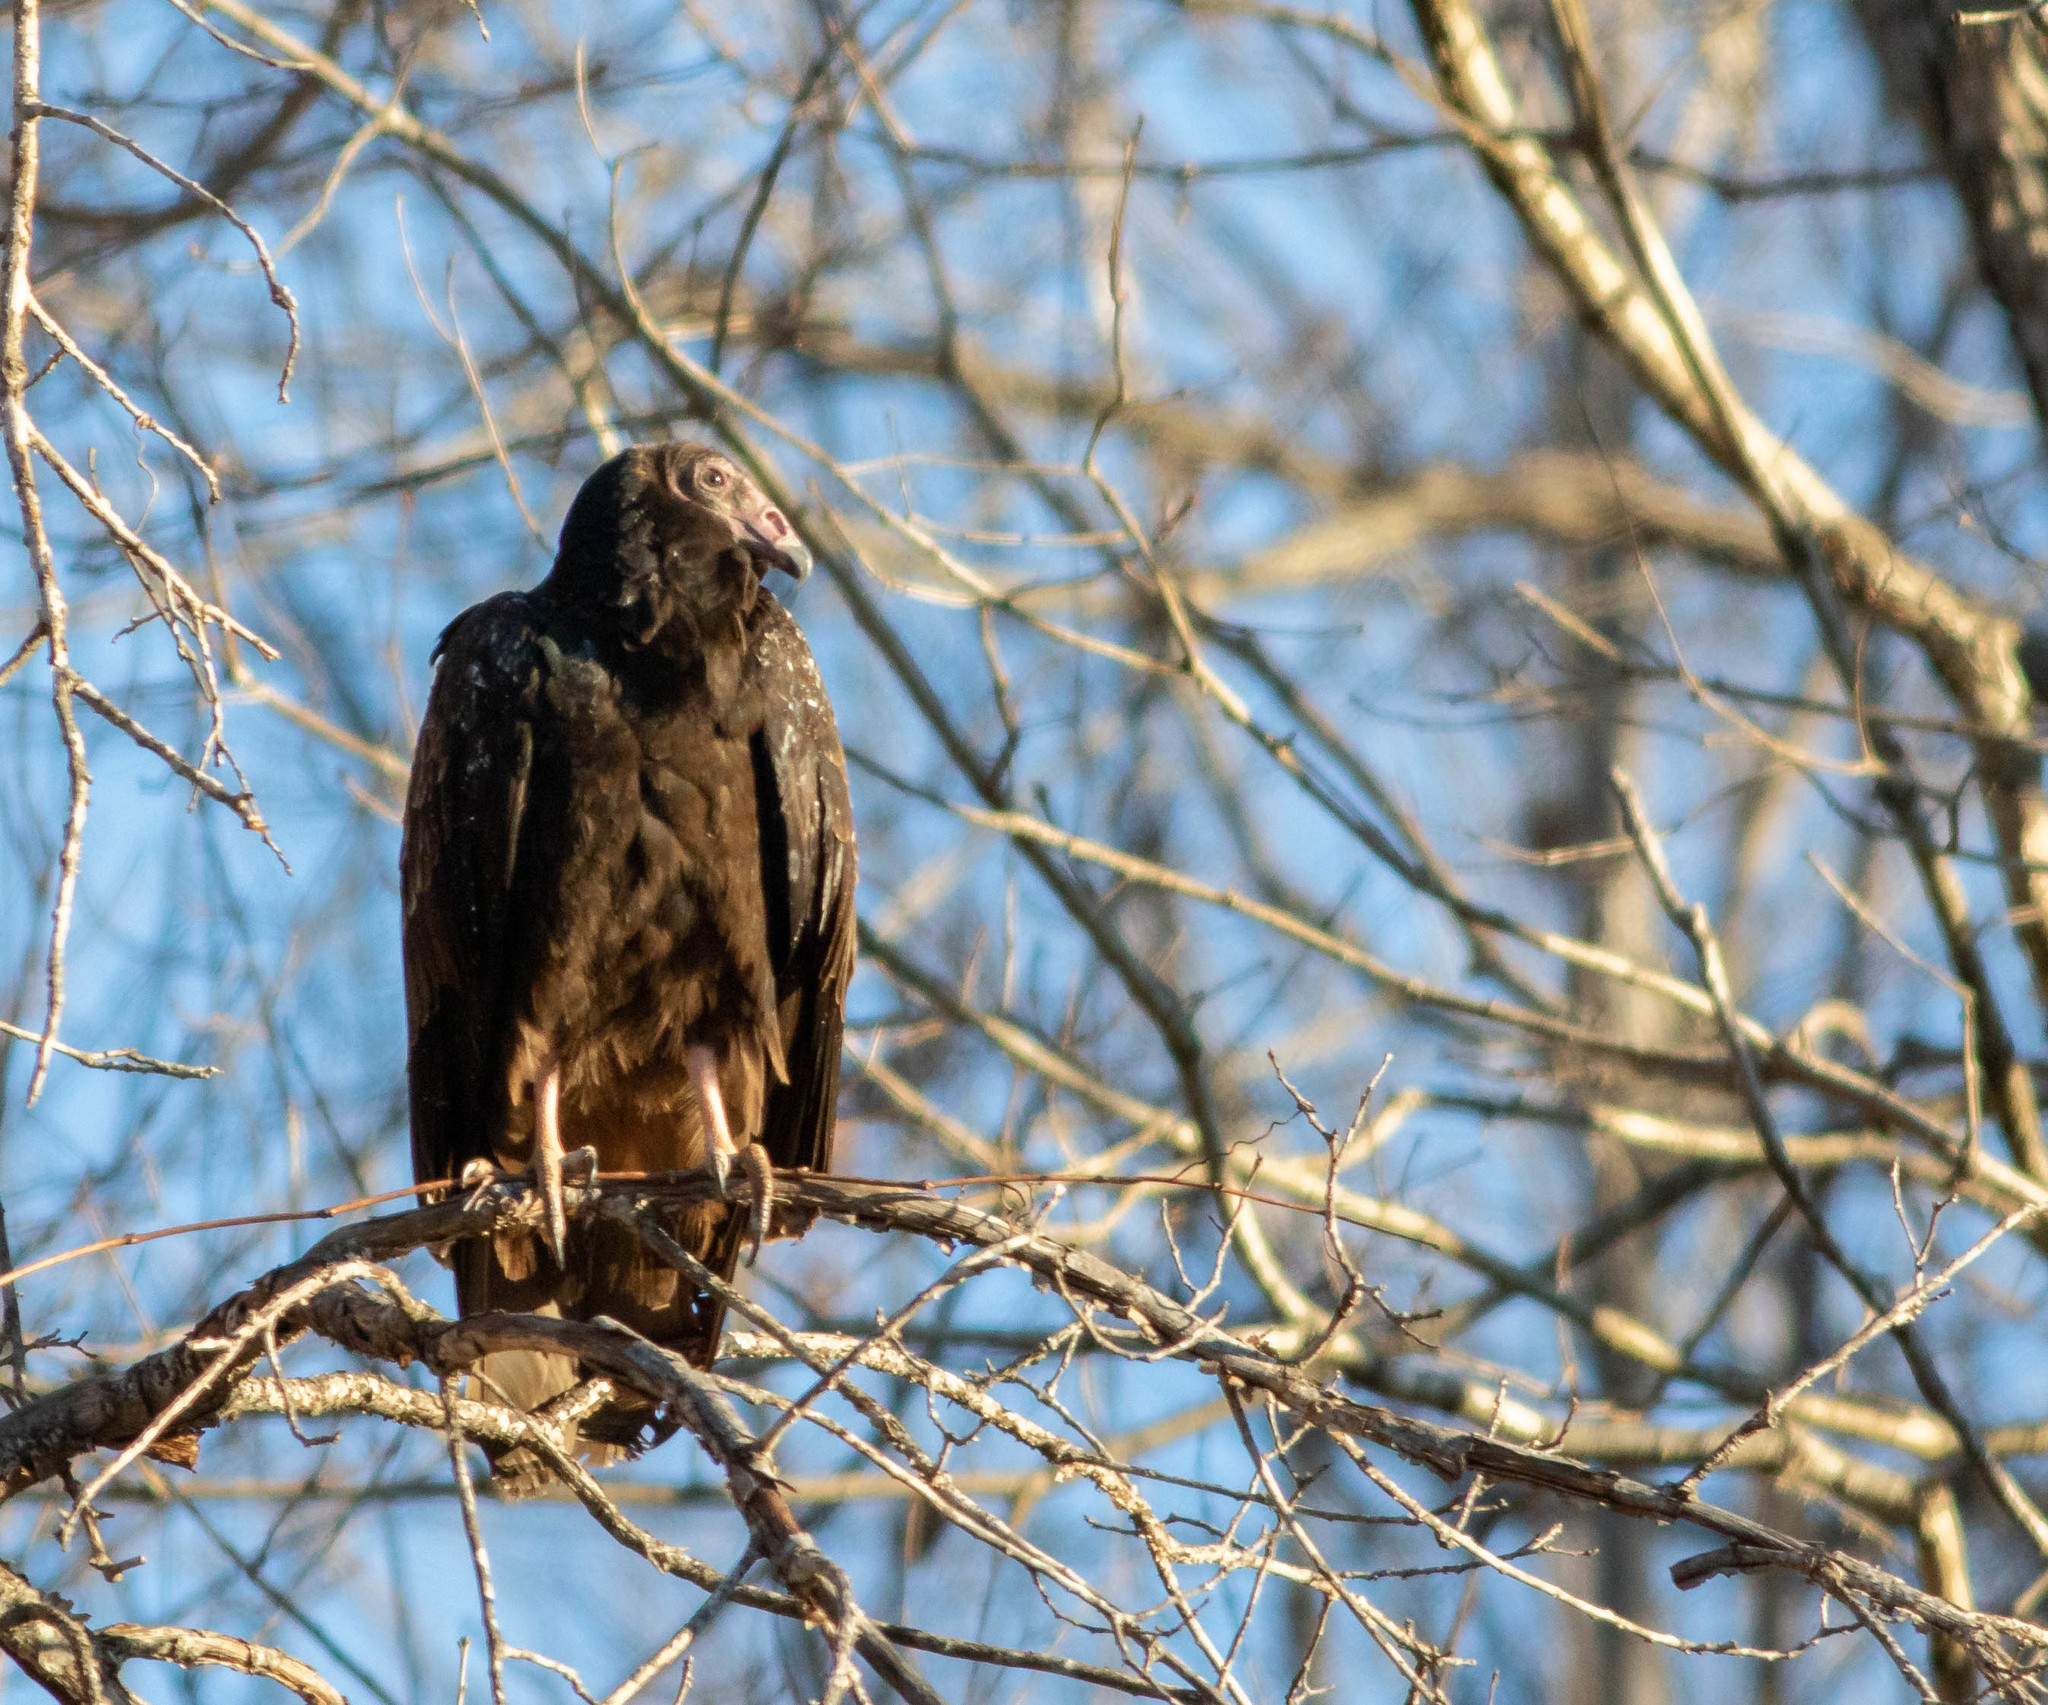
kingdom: Animalia
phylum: Chordata
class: Aves
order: Accipitriformes
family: Cathartidae
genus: Cathartes
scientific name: Cathartes aura
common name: Turkey vulture
